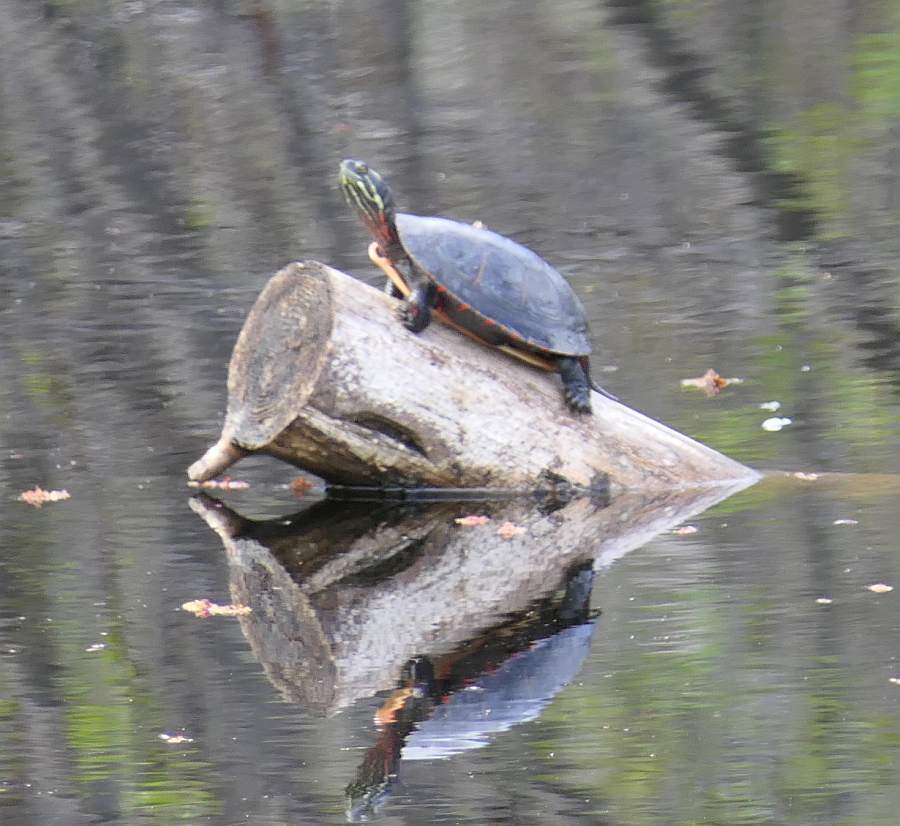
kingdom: Animalia
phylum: Chordata
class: Testudines
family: Emydidae
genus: Chrysemys
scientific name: Chrysemys picta
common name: Painted turtle
